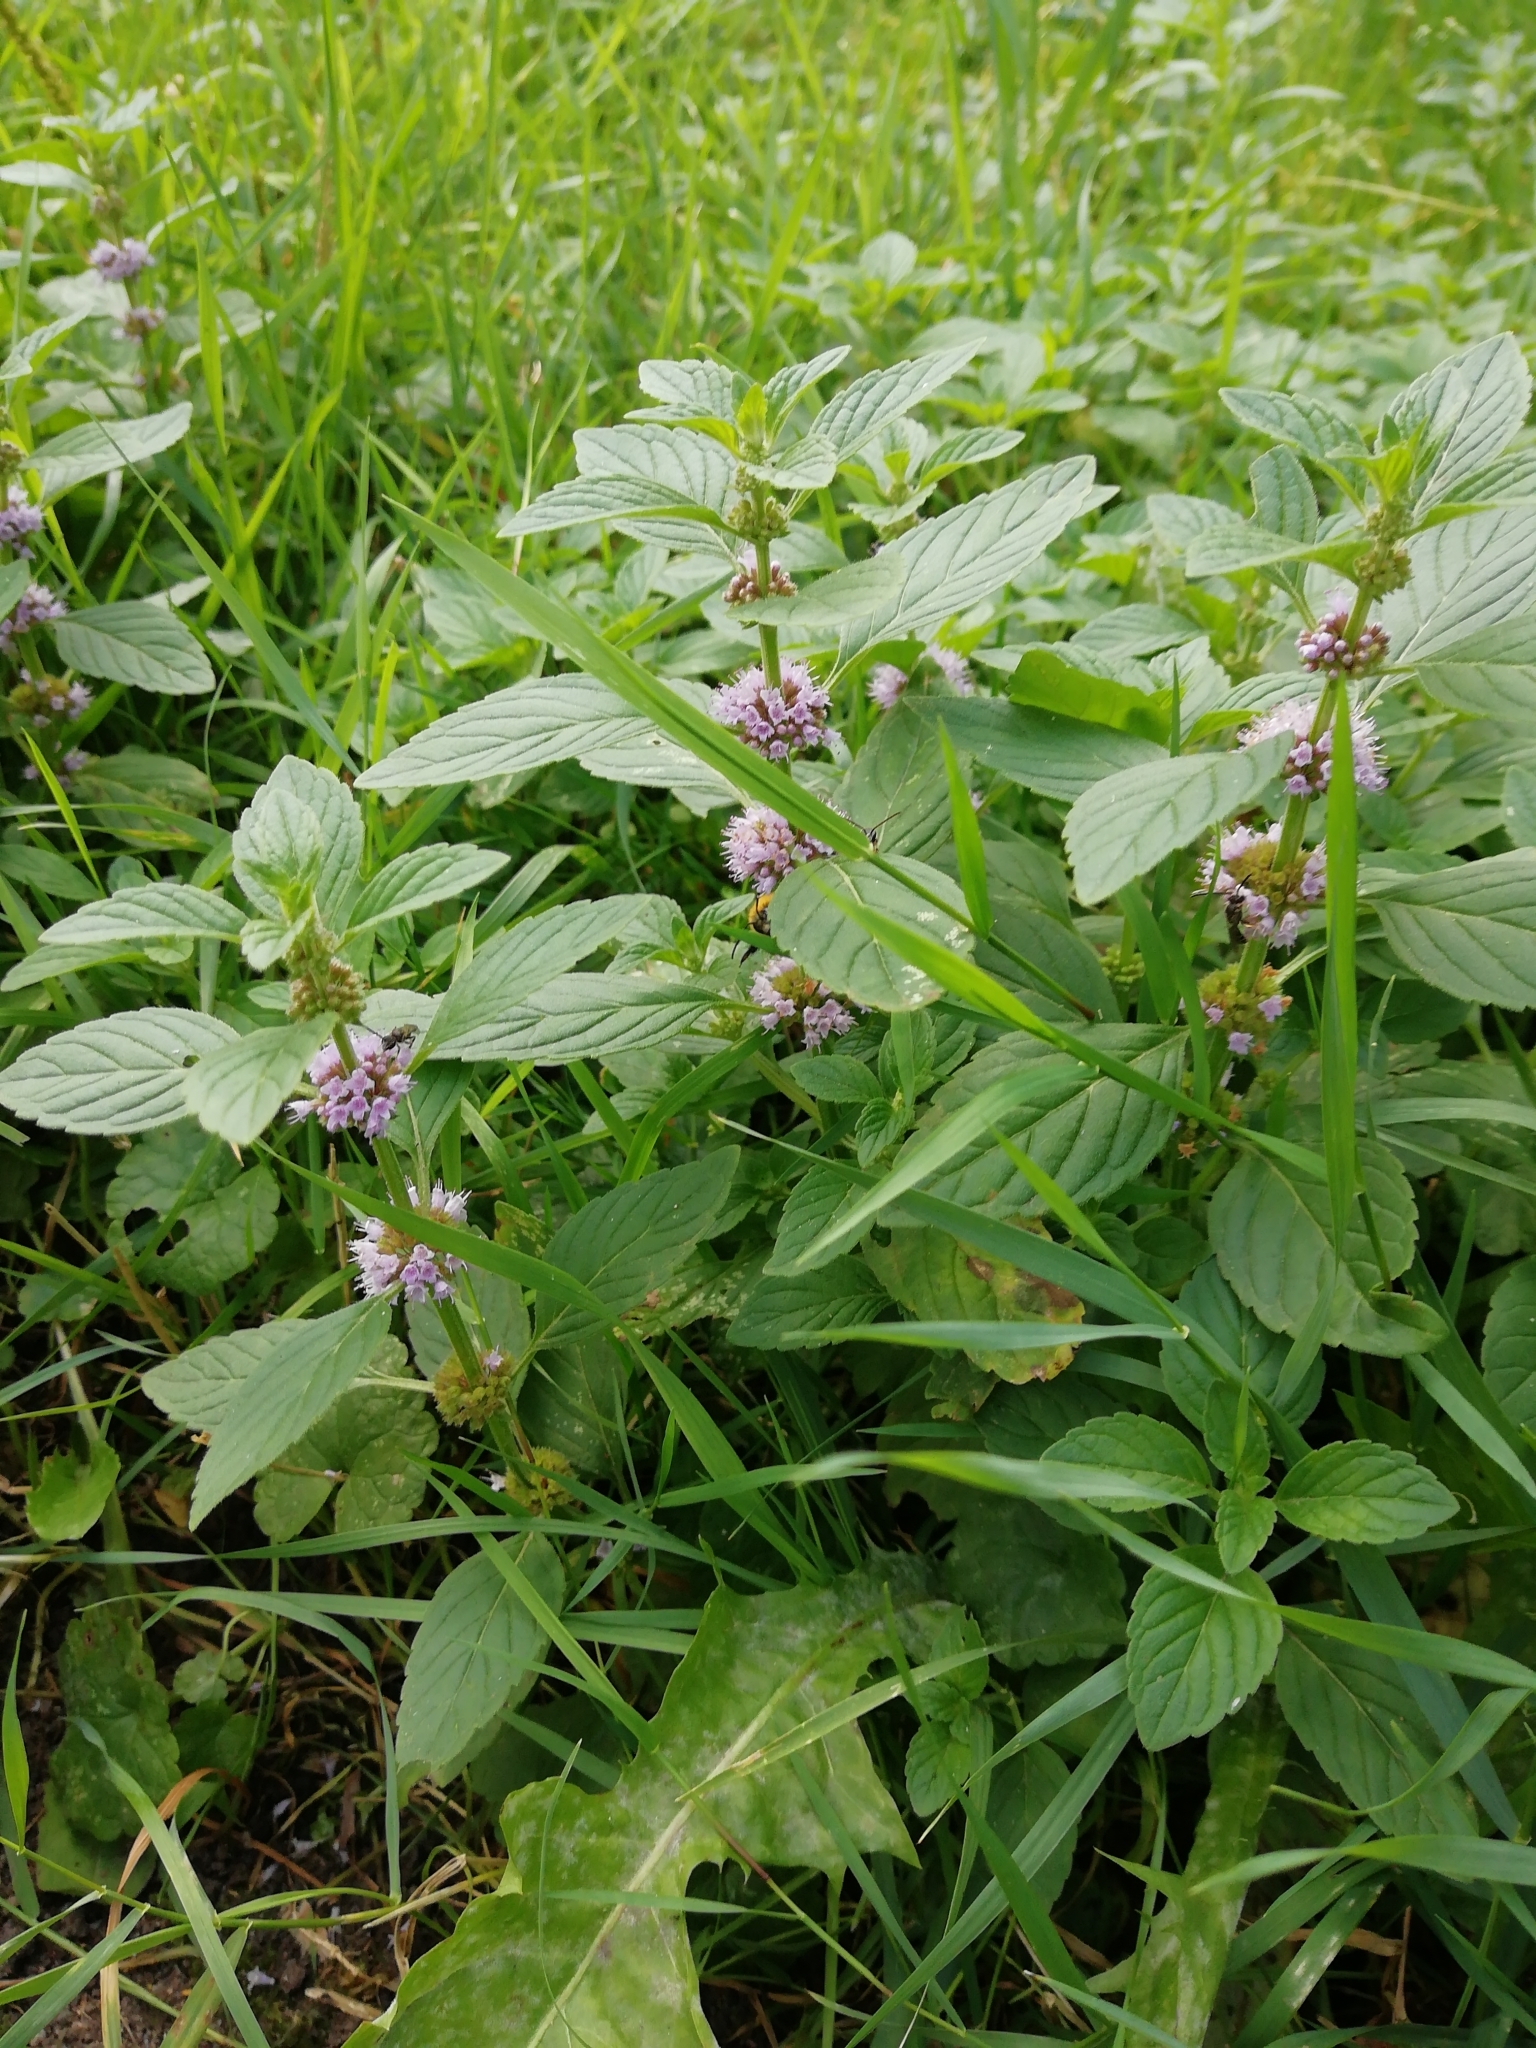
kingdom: Plantae
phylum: Tracheophyta
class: Magnoliopsida
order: Lamiales
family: Lamiaceae
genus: Mentha
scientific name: Mentha arvensis
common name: Corn mint
